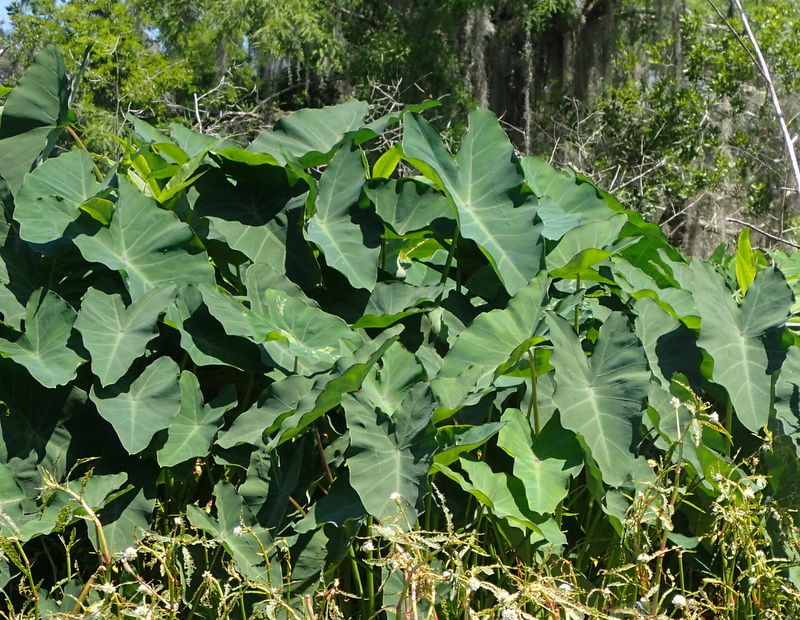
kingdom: Plantae
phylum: Tracheophyta
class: Liliopsida
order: Alismatales
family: Araceae
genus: Colocasia
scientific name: Colocasia esculenta
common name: Taro
